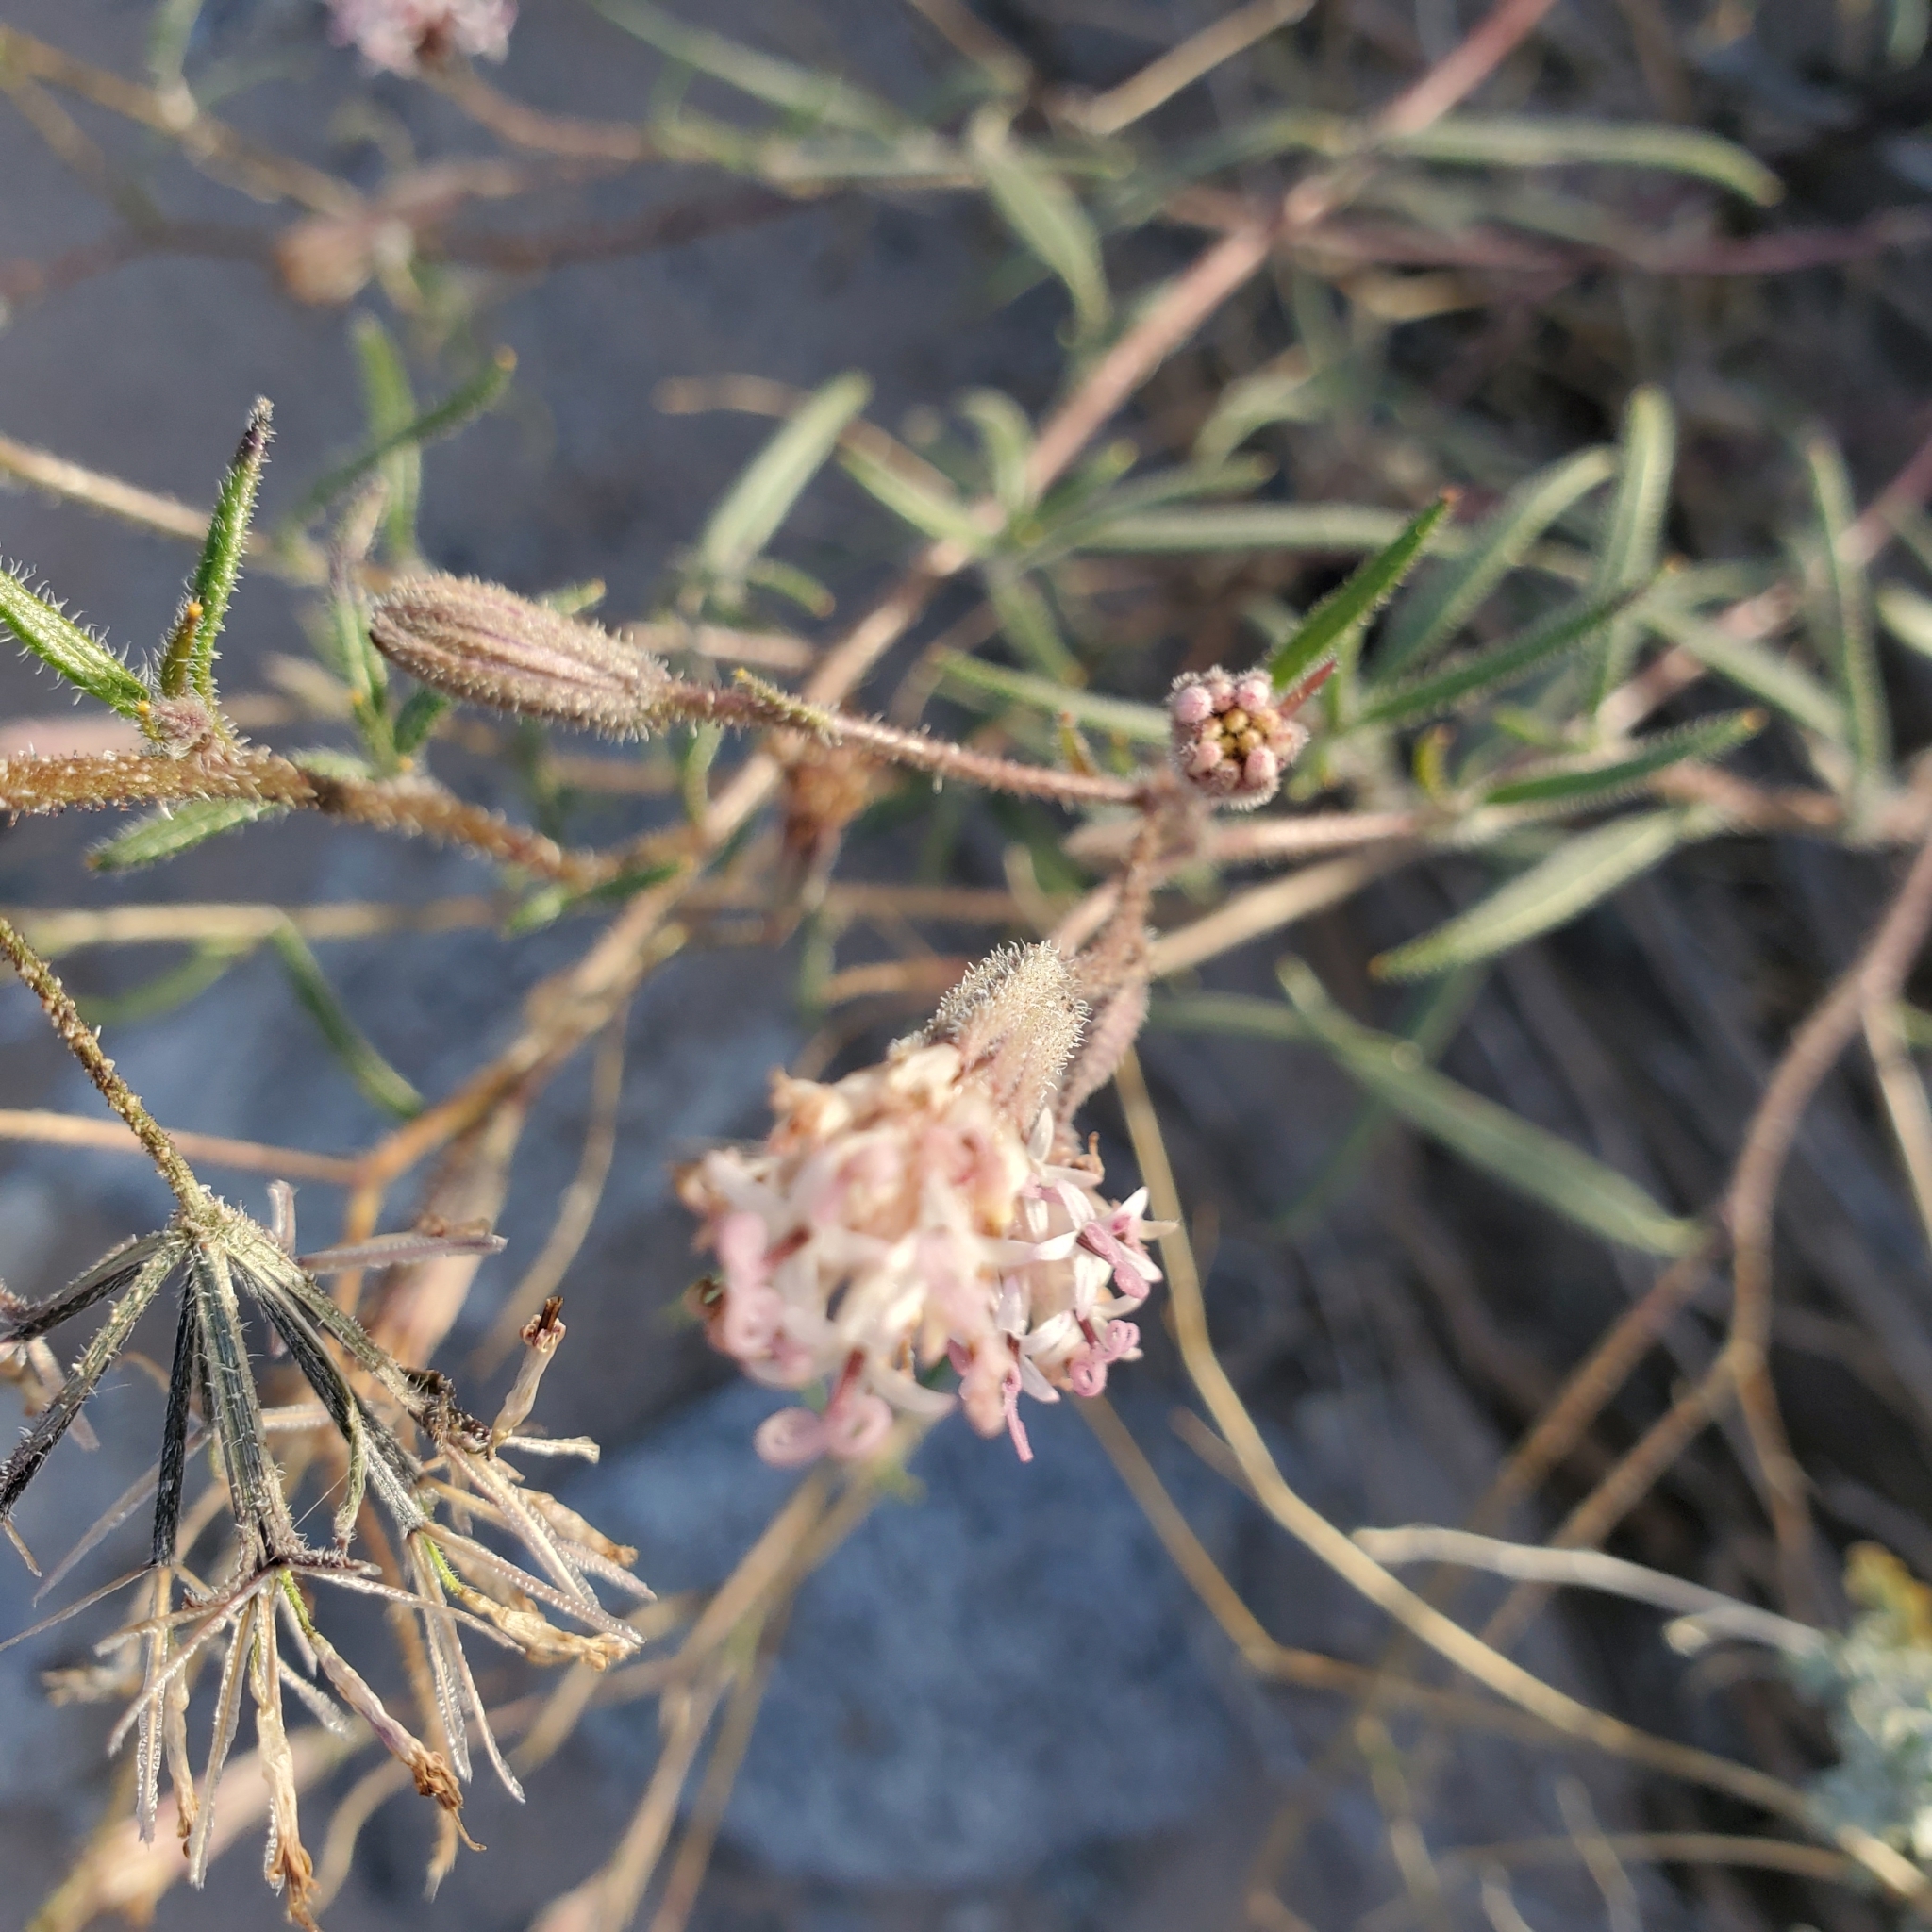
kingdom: Plantae
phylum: Tracheophyta
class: Magnoliopsida
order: Asterales
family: Asteraceae
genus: Palafoxia
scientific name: Palafoxia arida
